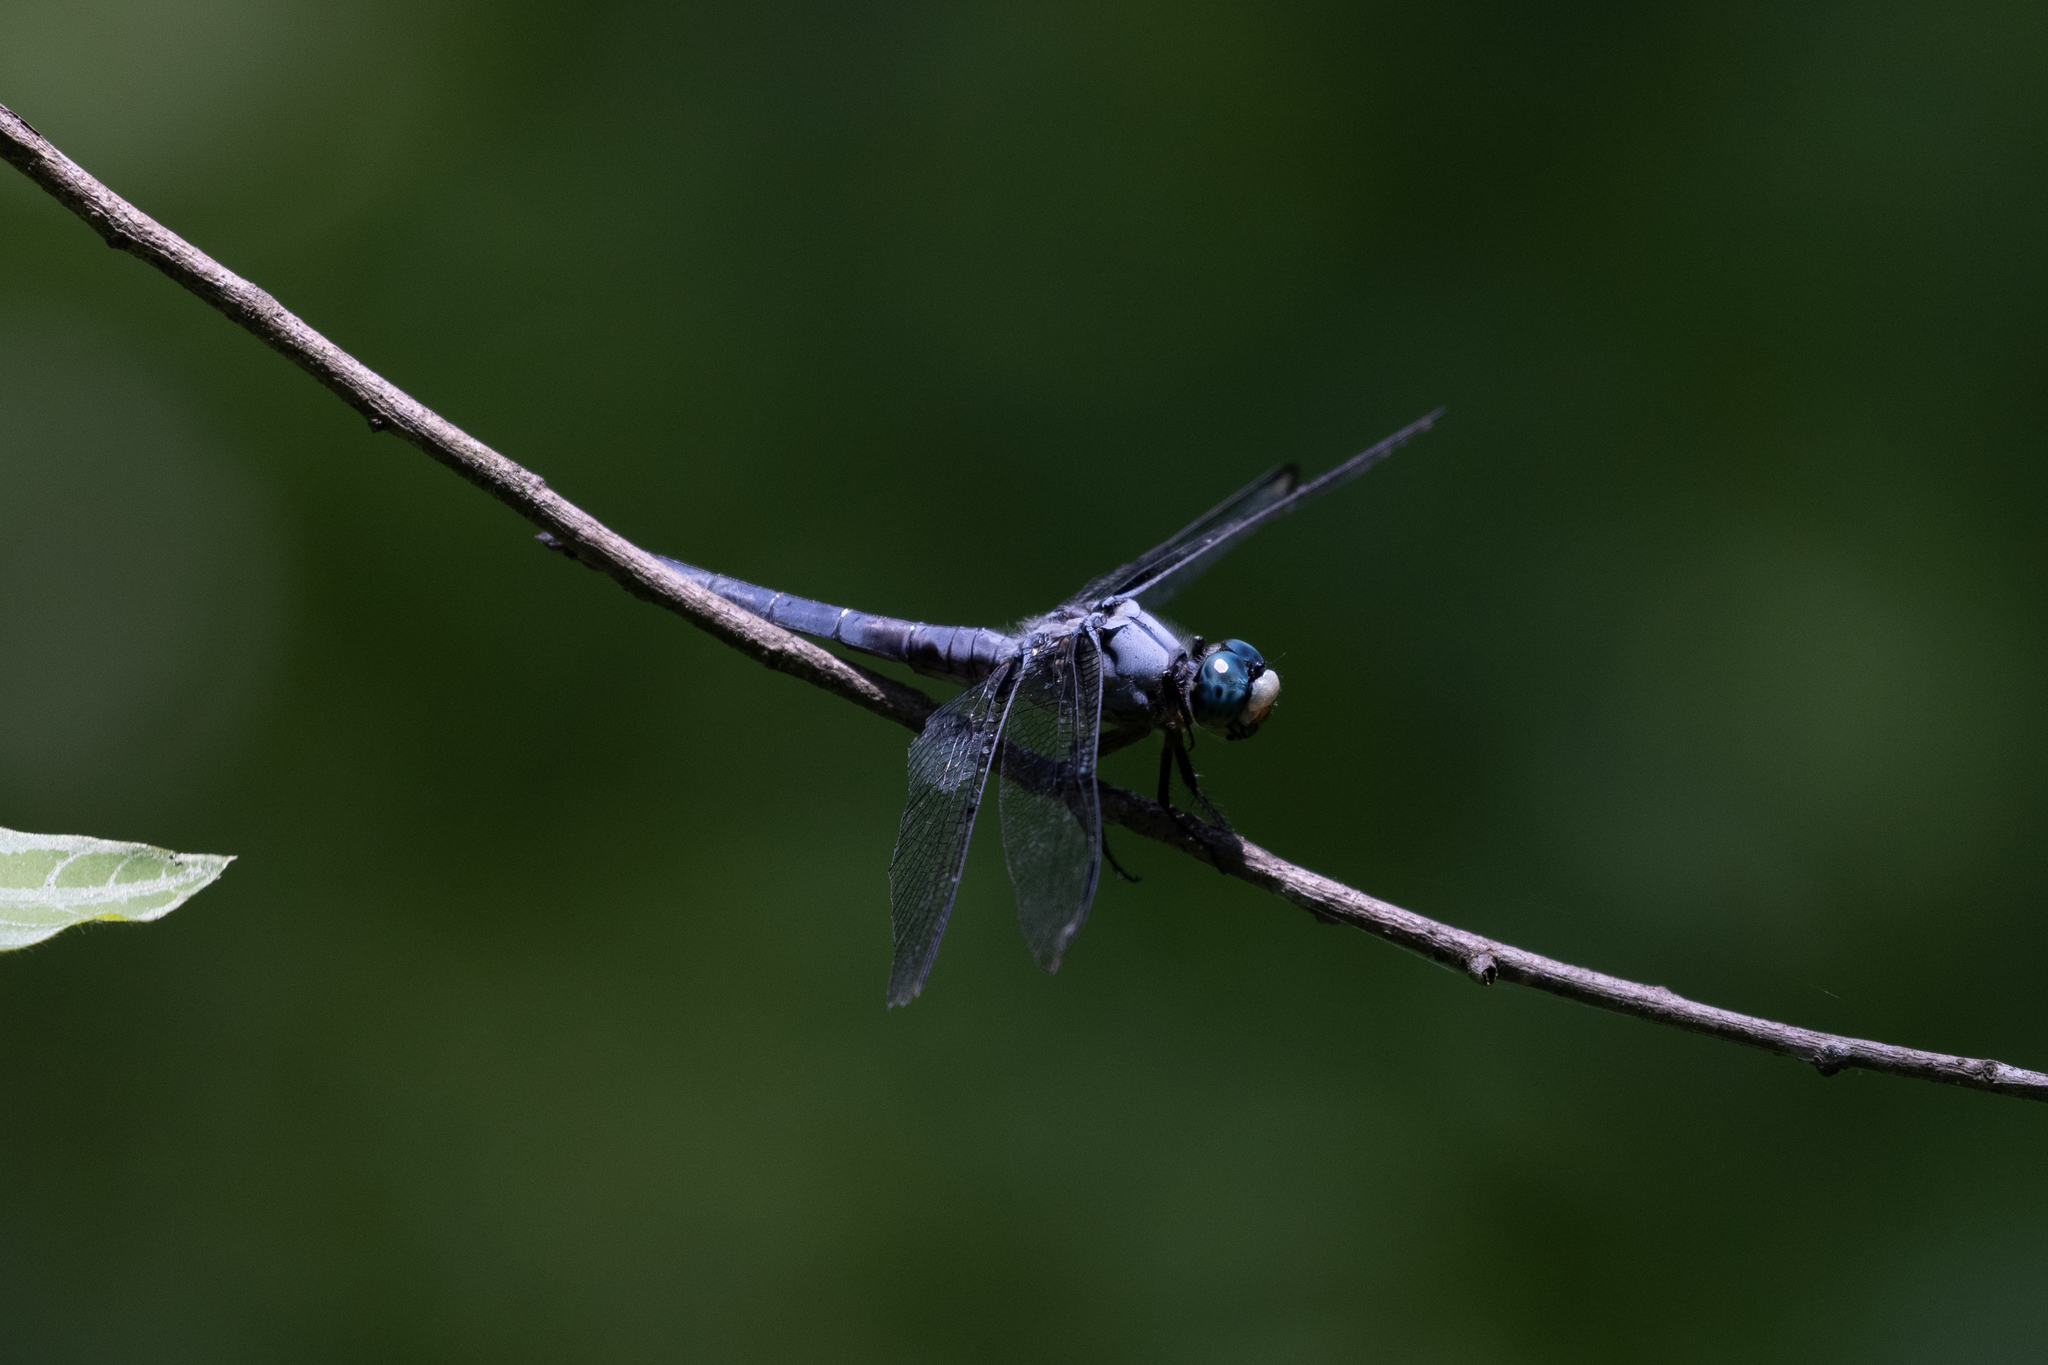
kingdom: Animalia
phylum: Arthropoda
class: Insecta
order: Odonata
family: Libellulidae
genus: Libellula
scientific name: Libellula vibrans
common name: Great blue skimmer
